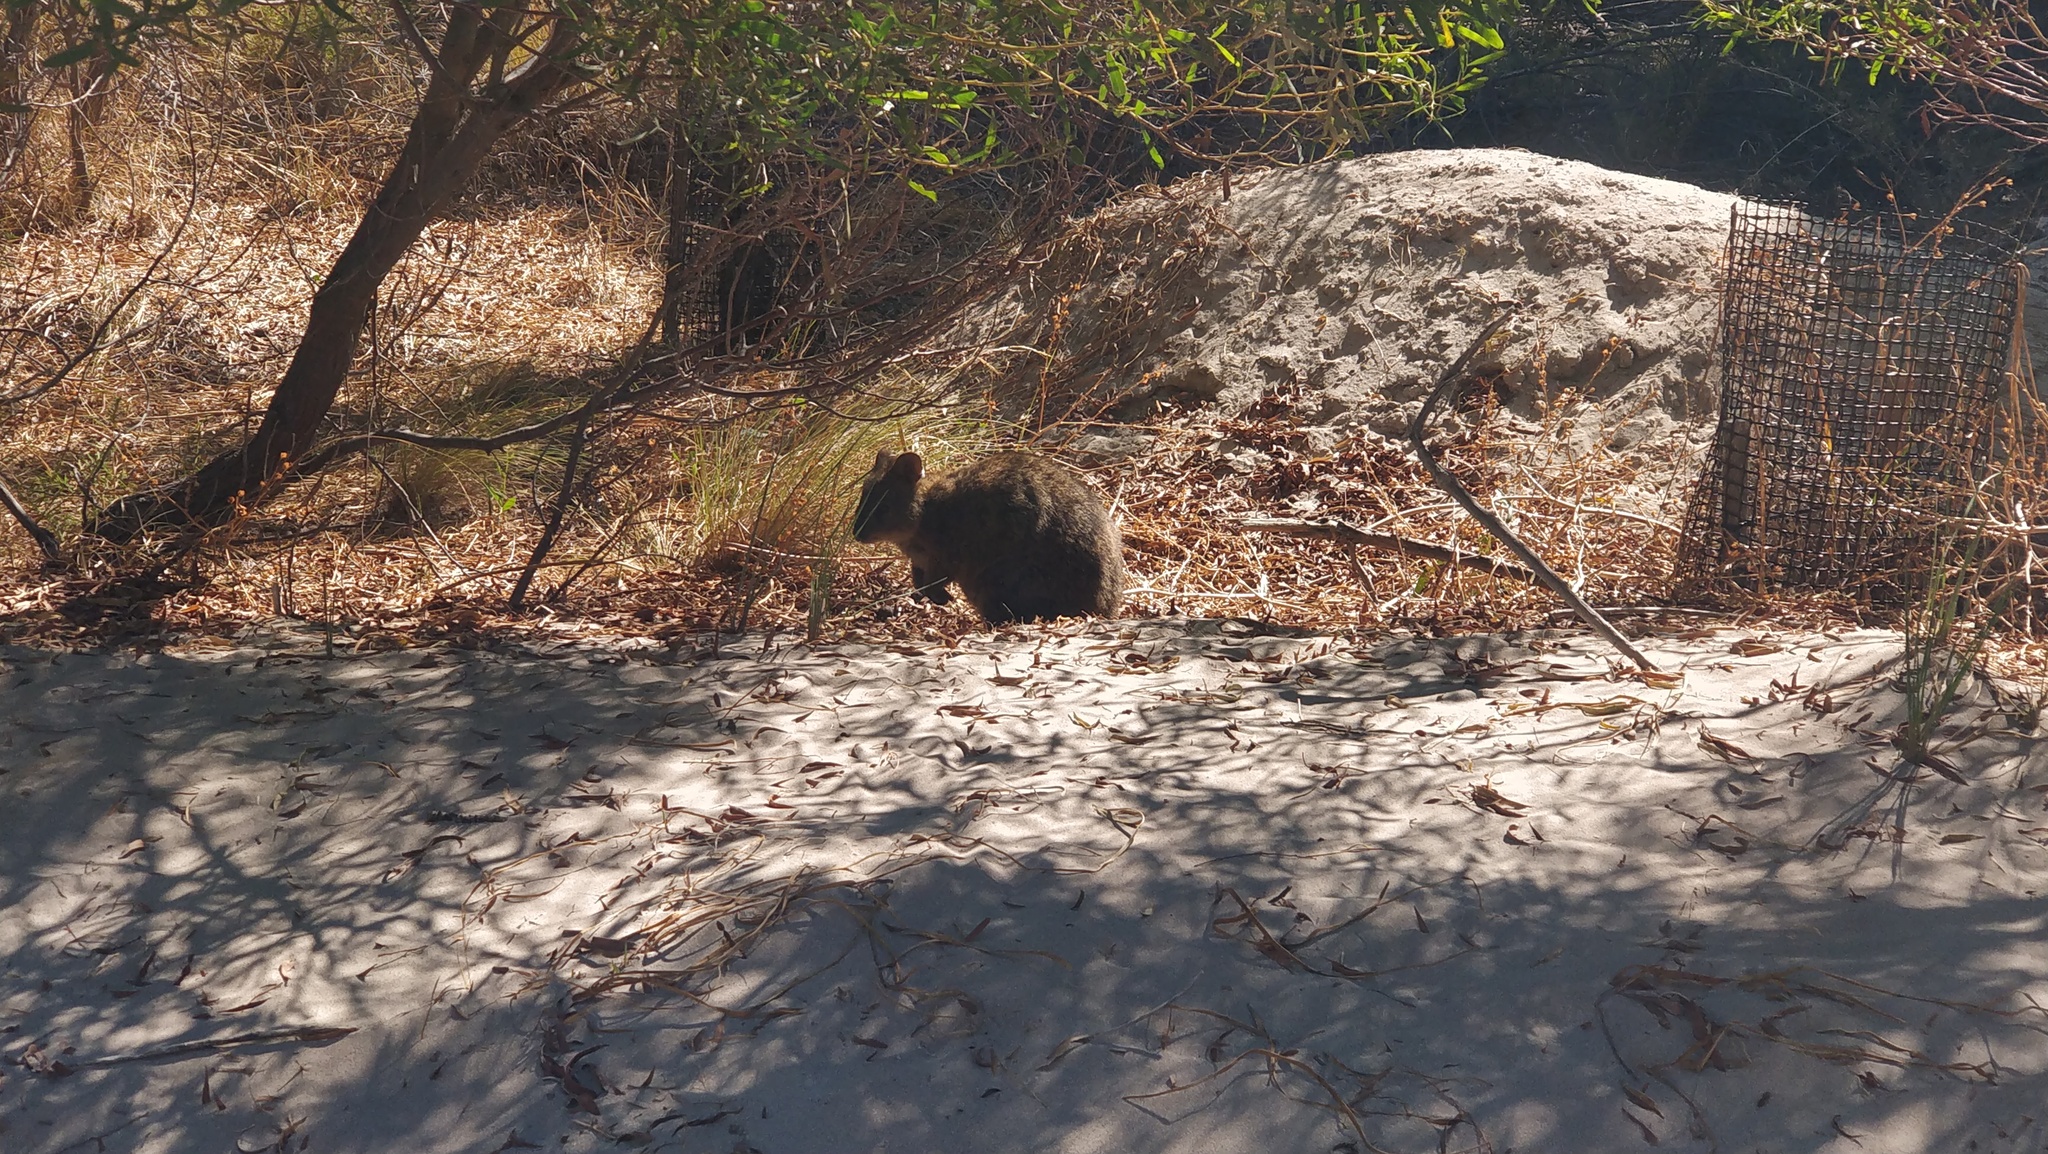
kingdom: Animalia
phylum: Chordata
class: Mammalia
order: Diprotodontia
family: Macropodidae
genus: Setonix
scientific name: Setonix brachyurus
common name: Quokka
